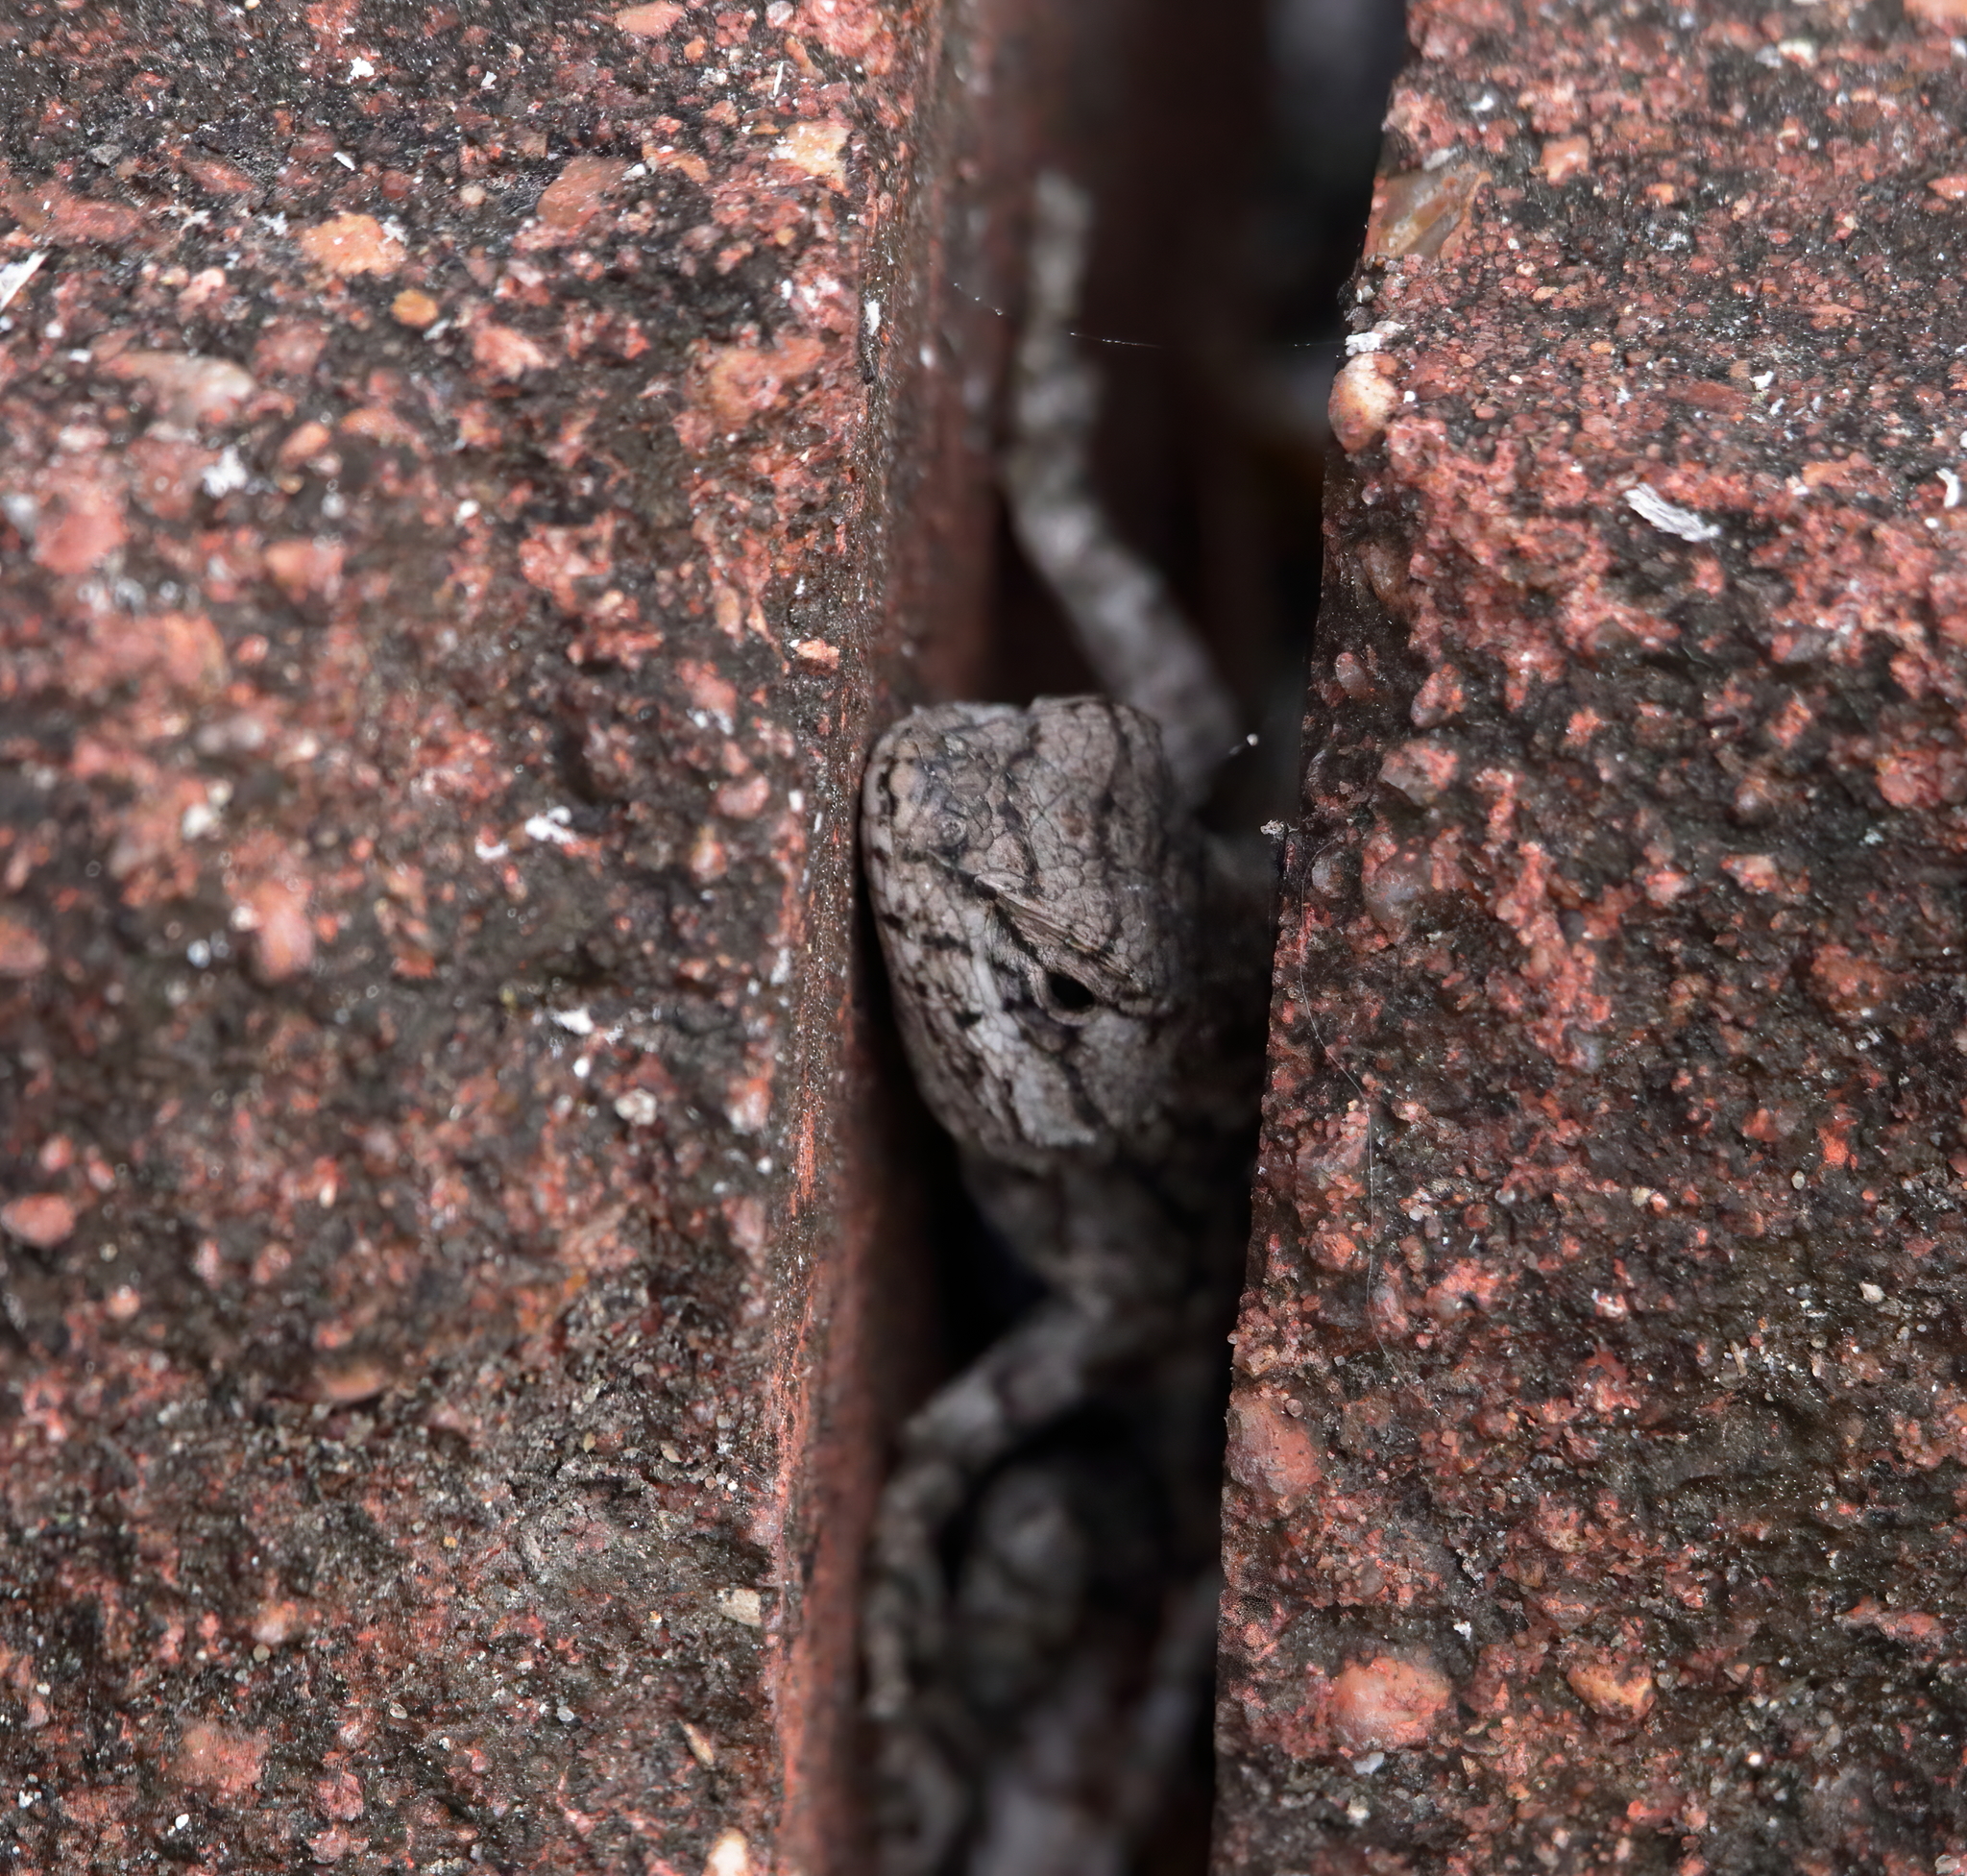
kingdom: Animalia
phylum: Chordata
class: Squamata
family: Phrynosomatidae
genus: Sceloporus
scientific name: Sceloporus undulatus
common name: Eastern fence lizard
